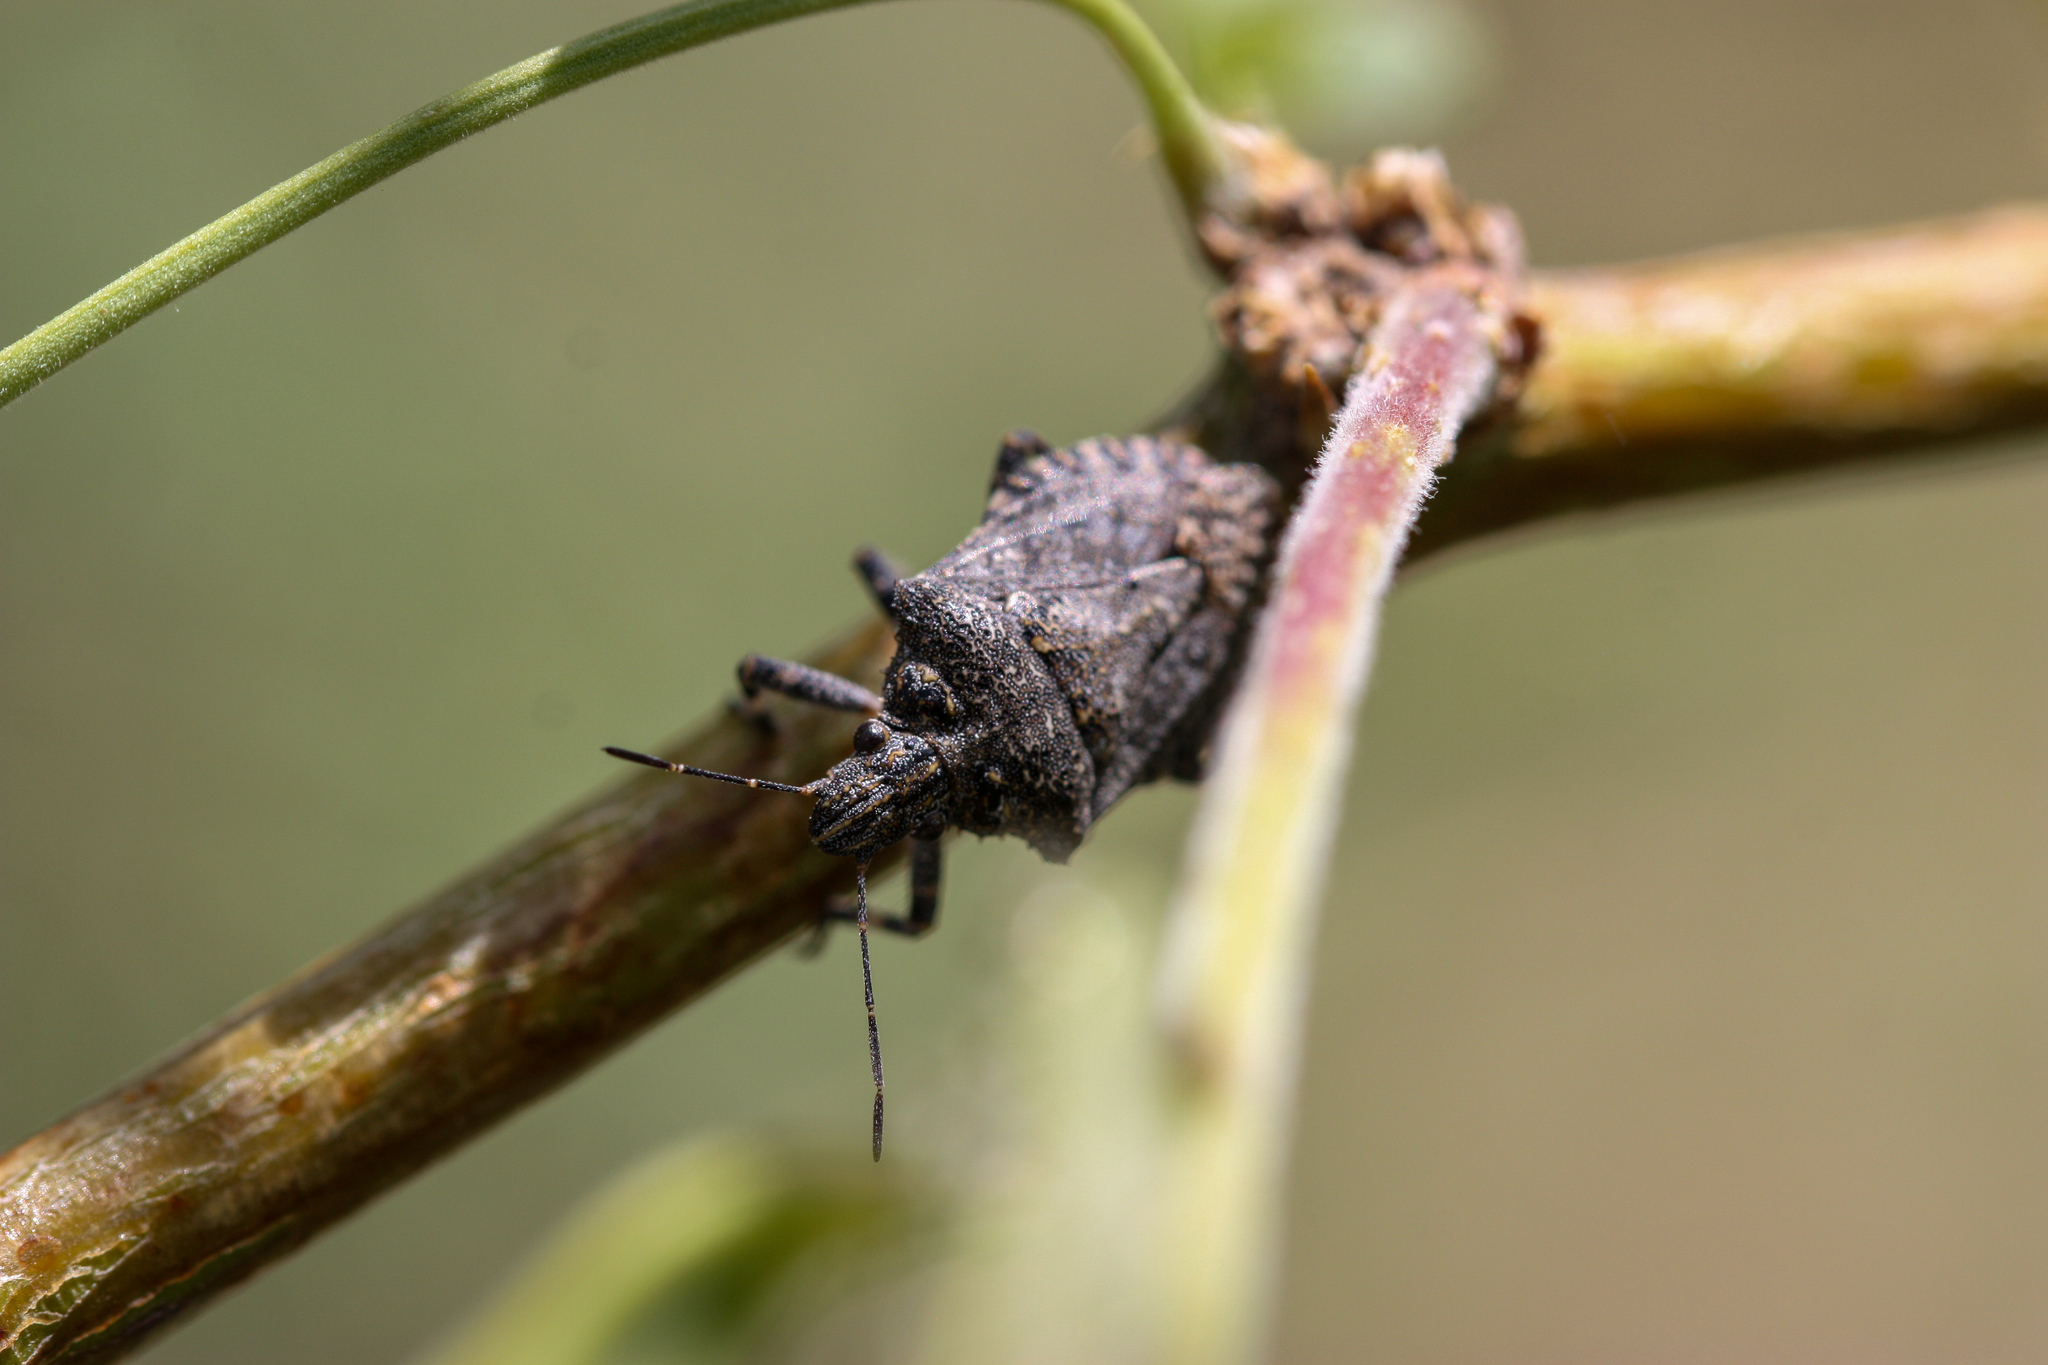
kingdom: Animalia
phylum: Arthropoda
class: Insecta
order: Hemiptera
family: Pentatomidae
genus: Brochymena
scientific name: Brochymena parva
